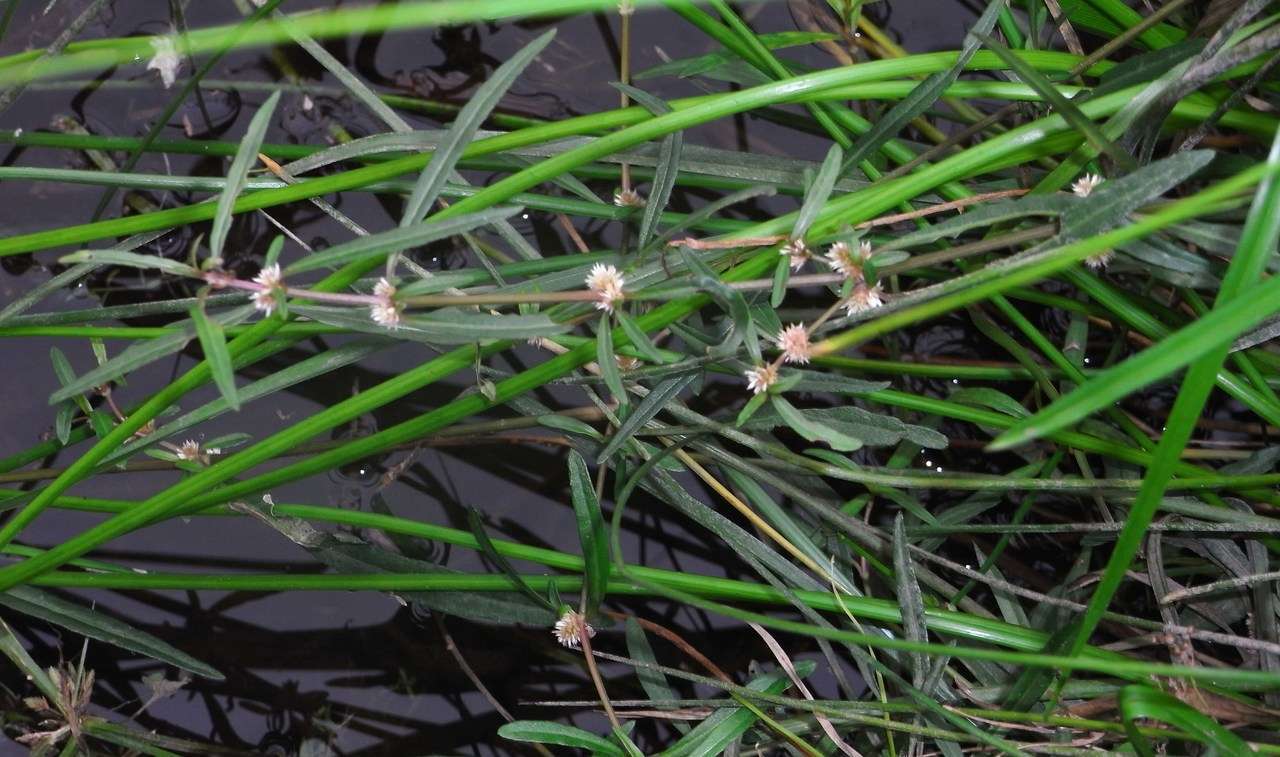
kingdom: Plantae
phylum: Tracheophyta
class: Magnoliopsida
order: Caryophyllales
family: Amaranthaceae
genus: Alternanthera
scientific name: Alternanthera denticulata
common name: Lesser joyweed
